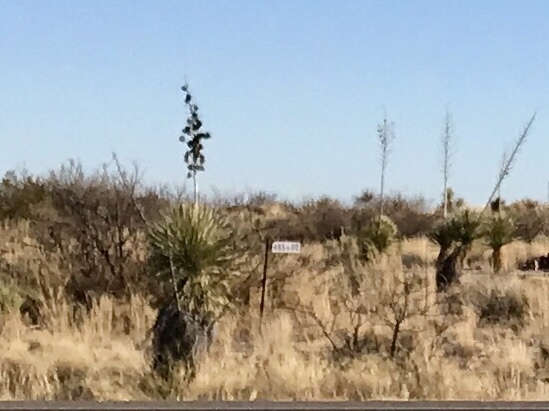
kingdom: Plantae
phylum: Tracheophyta
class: Liliopsida
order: Asparagales
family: Asparagaceae
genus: Yucca
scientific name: Yucca elata
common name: Palmella
